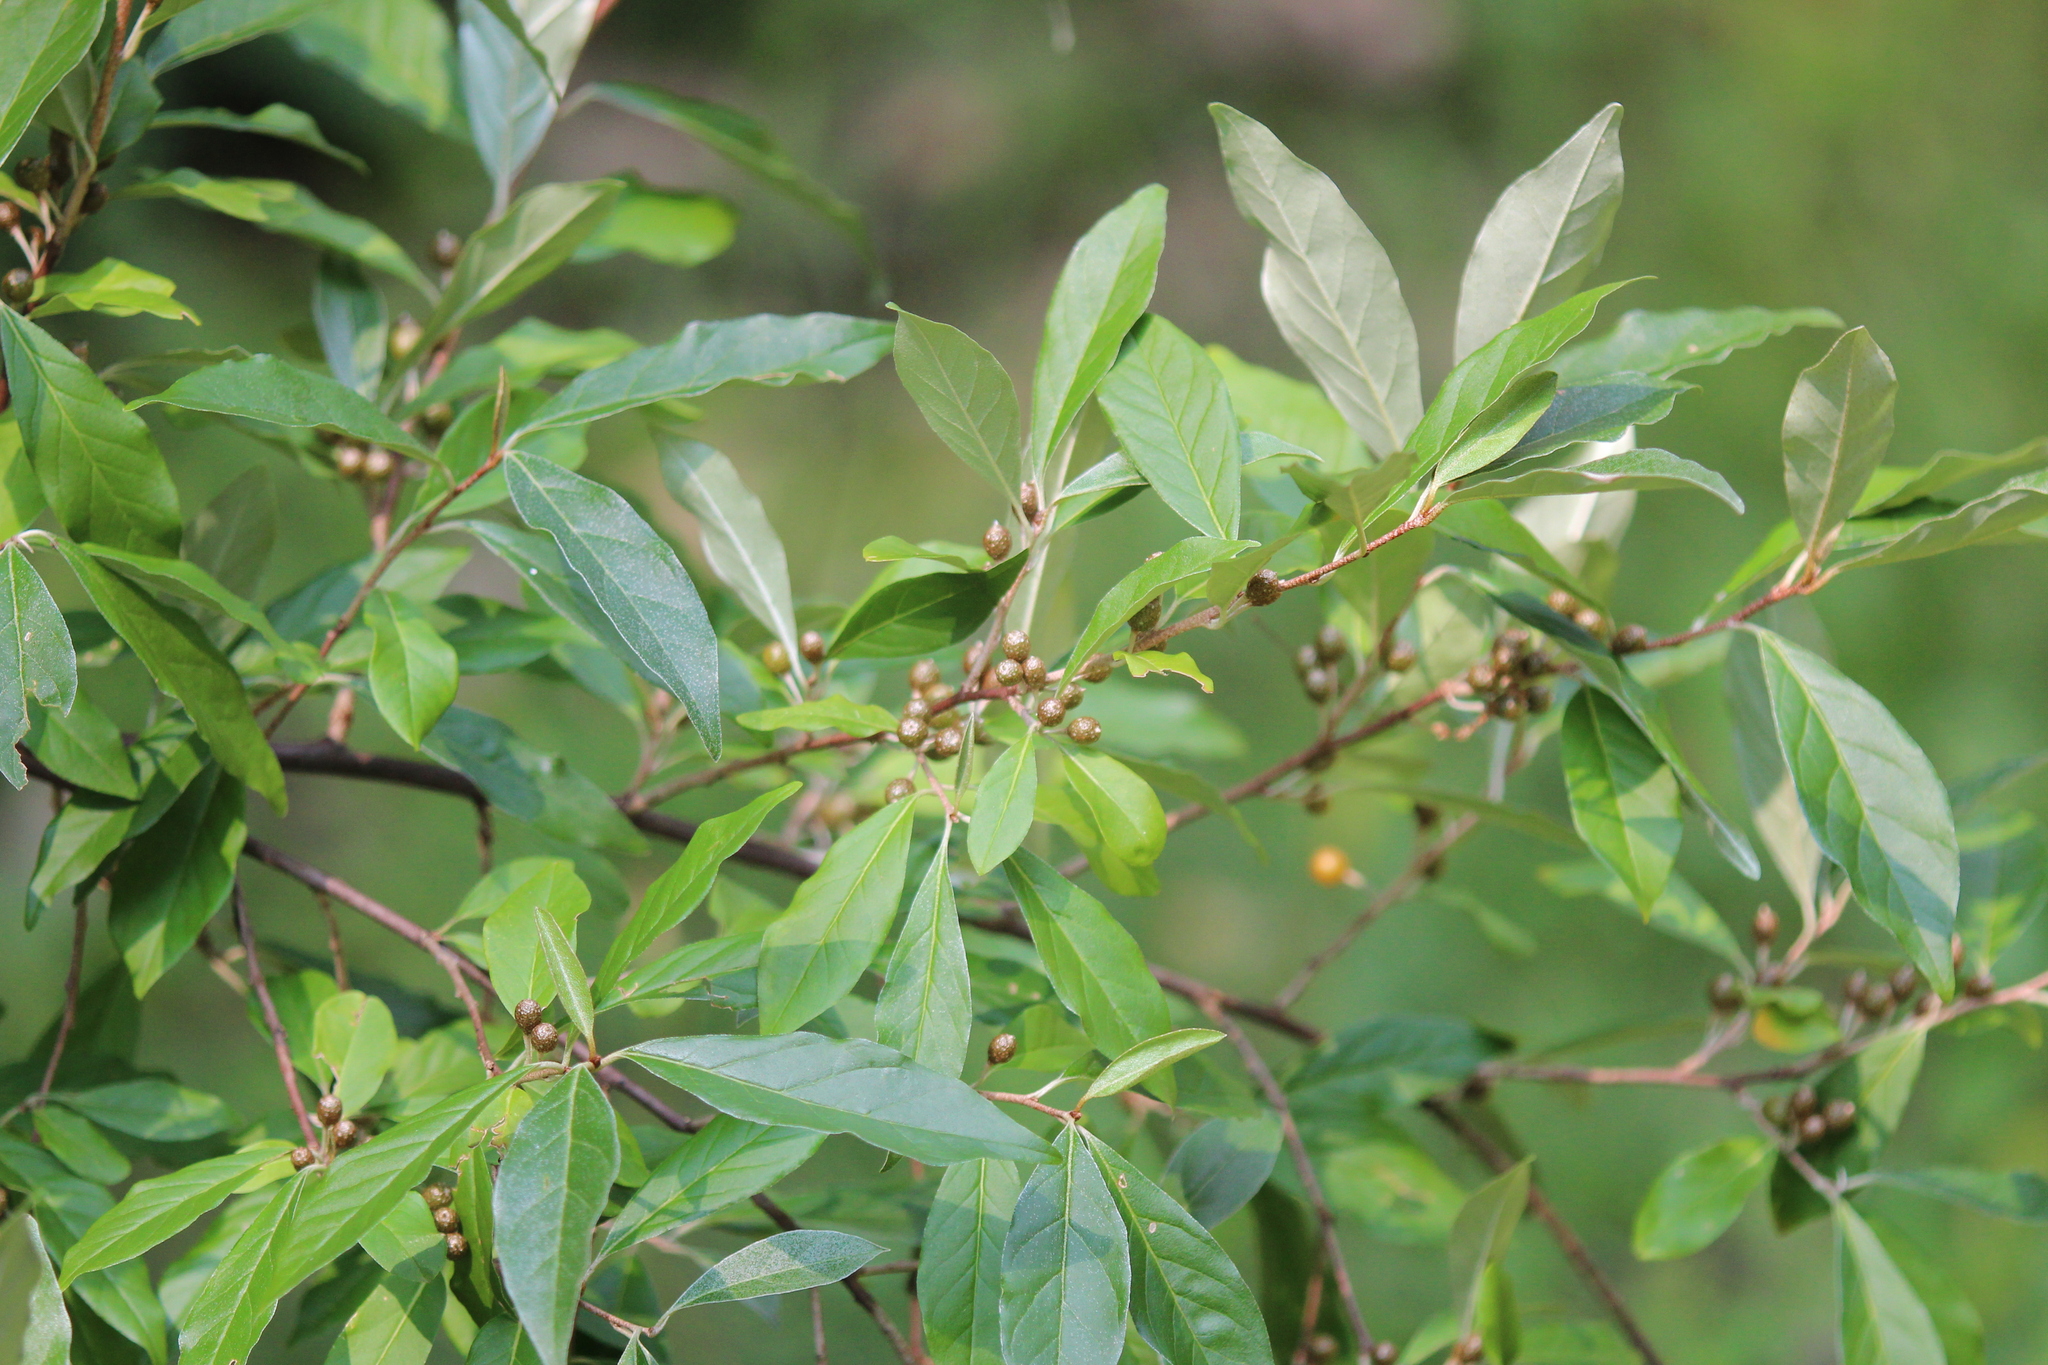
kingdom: Plantae
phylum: Tracheophyta
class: Magnoliopsida
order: Rosales
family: Elaeagnaceae
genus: Elaeagnus
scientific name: Elaeagnus umbellata
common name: Autumn olive
